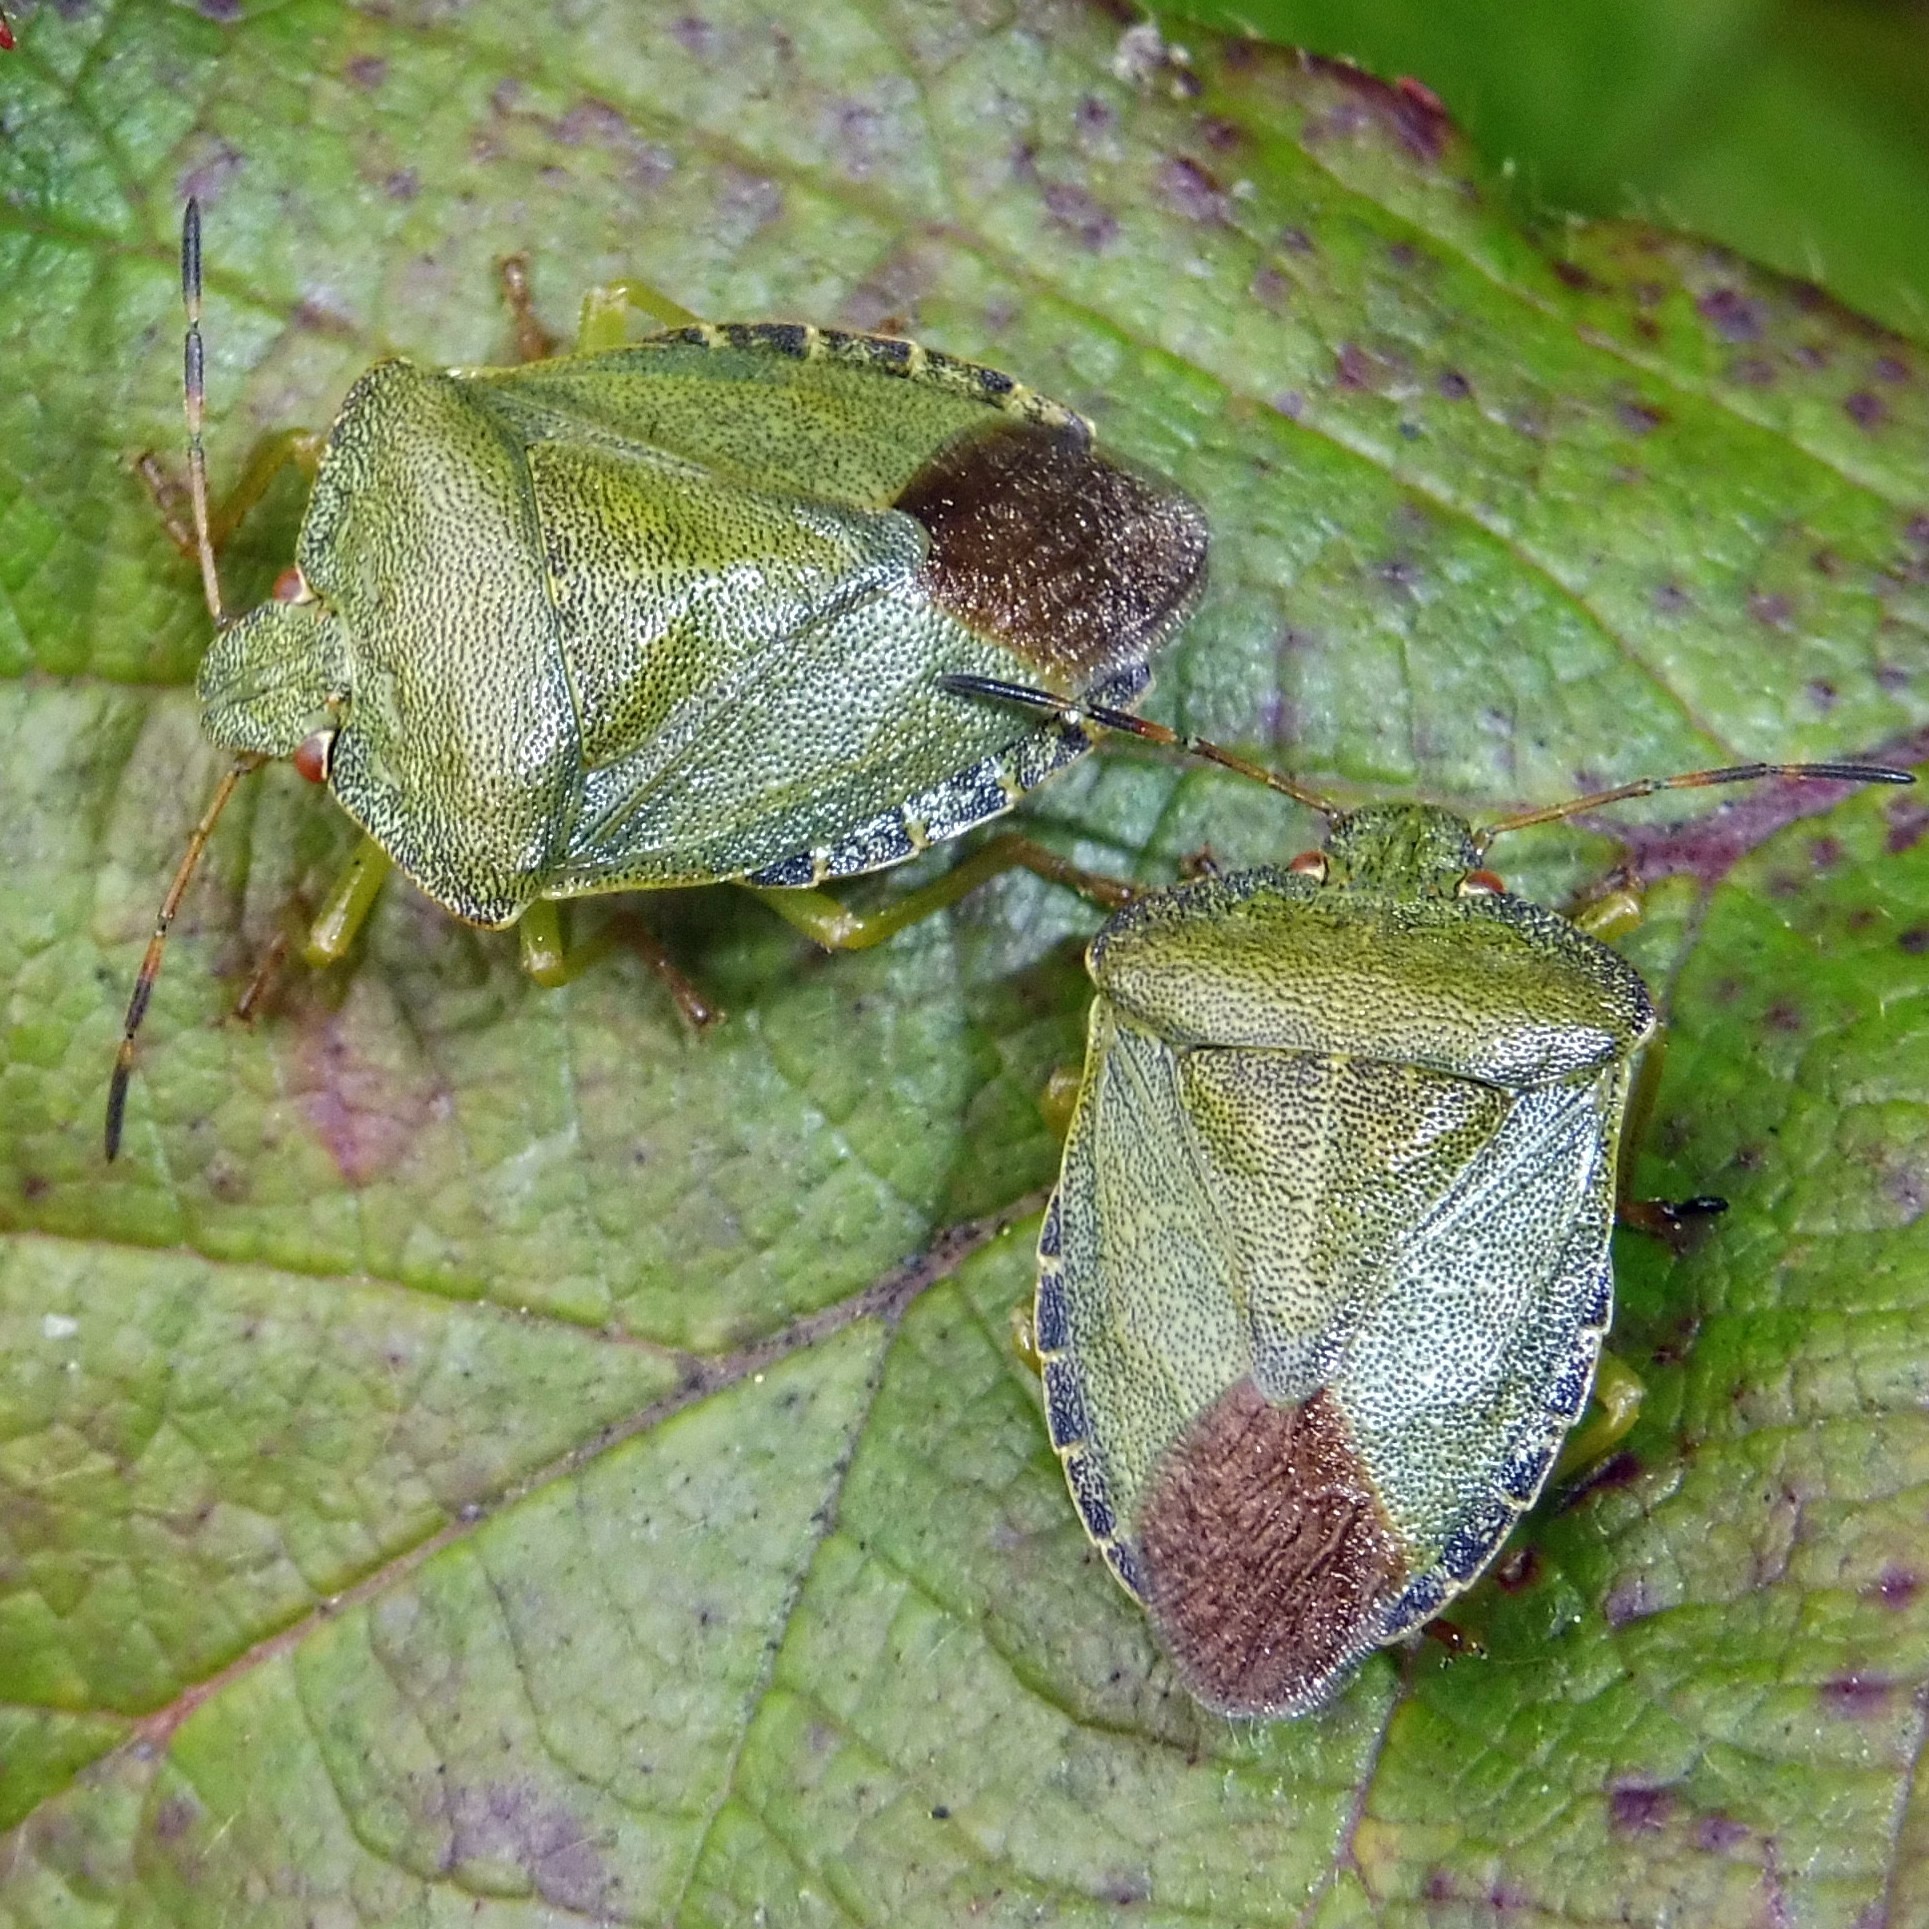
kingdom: Animalia
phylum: Arthropoda
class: Insecta
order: Hemiptera
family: Pentatomidae
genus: Palomena
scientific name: Palomena prasina
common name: Green shieldbug
